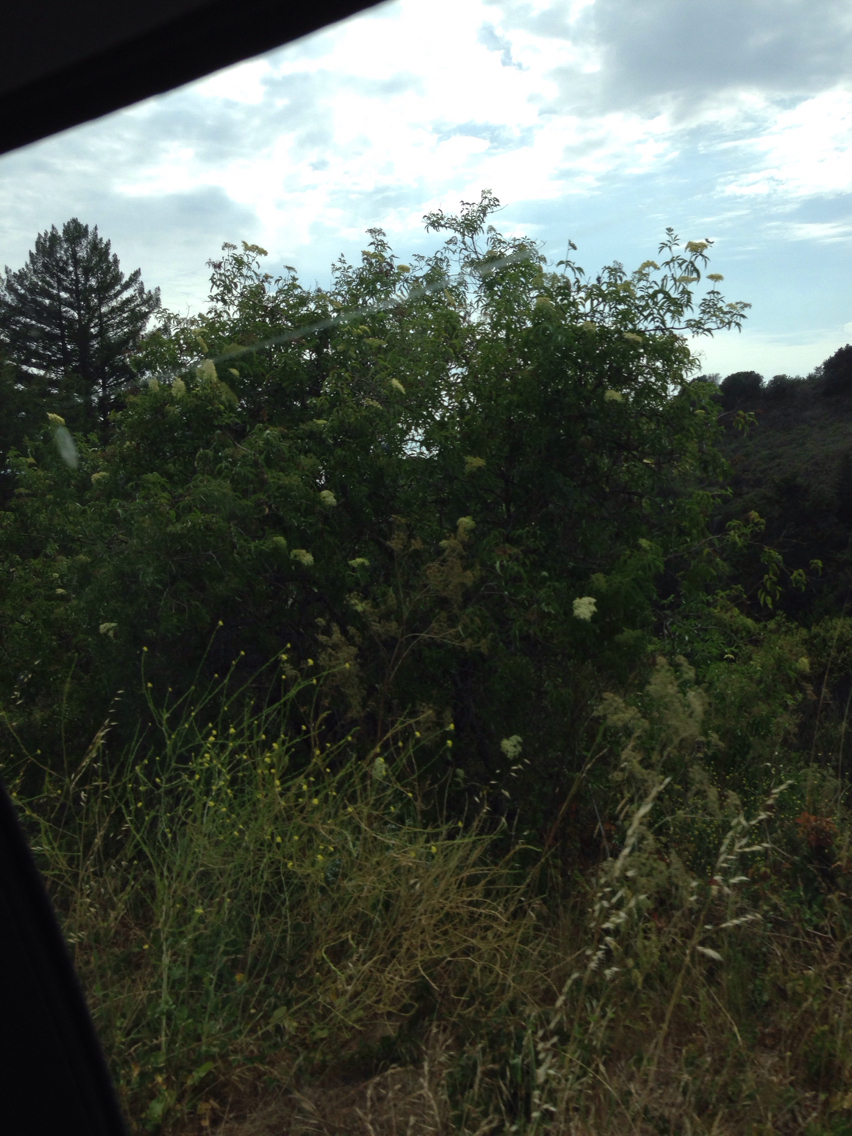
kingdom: Plantae
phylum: Tracheophyta
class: Magnoliopsida
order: Dipsacales
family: Viburnaceae
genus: Sambucus
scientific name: Sambucus cerulea
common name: Blue elder
